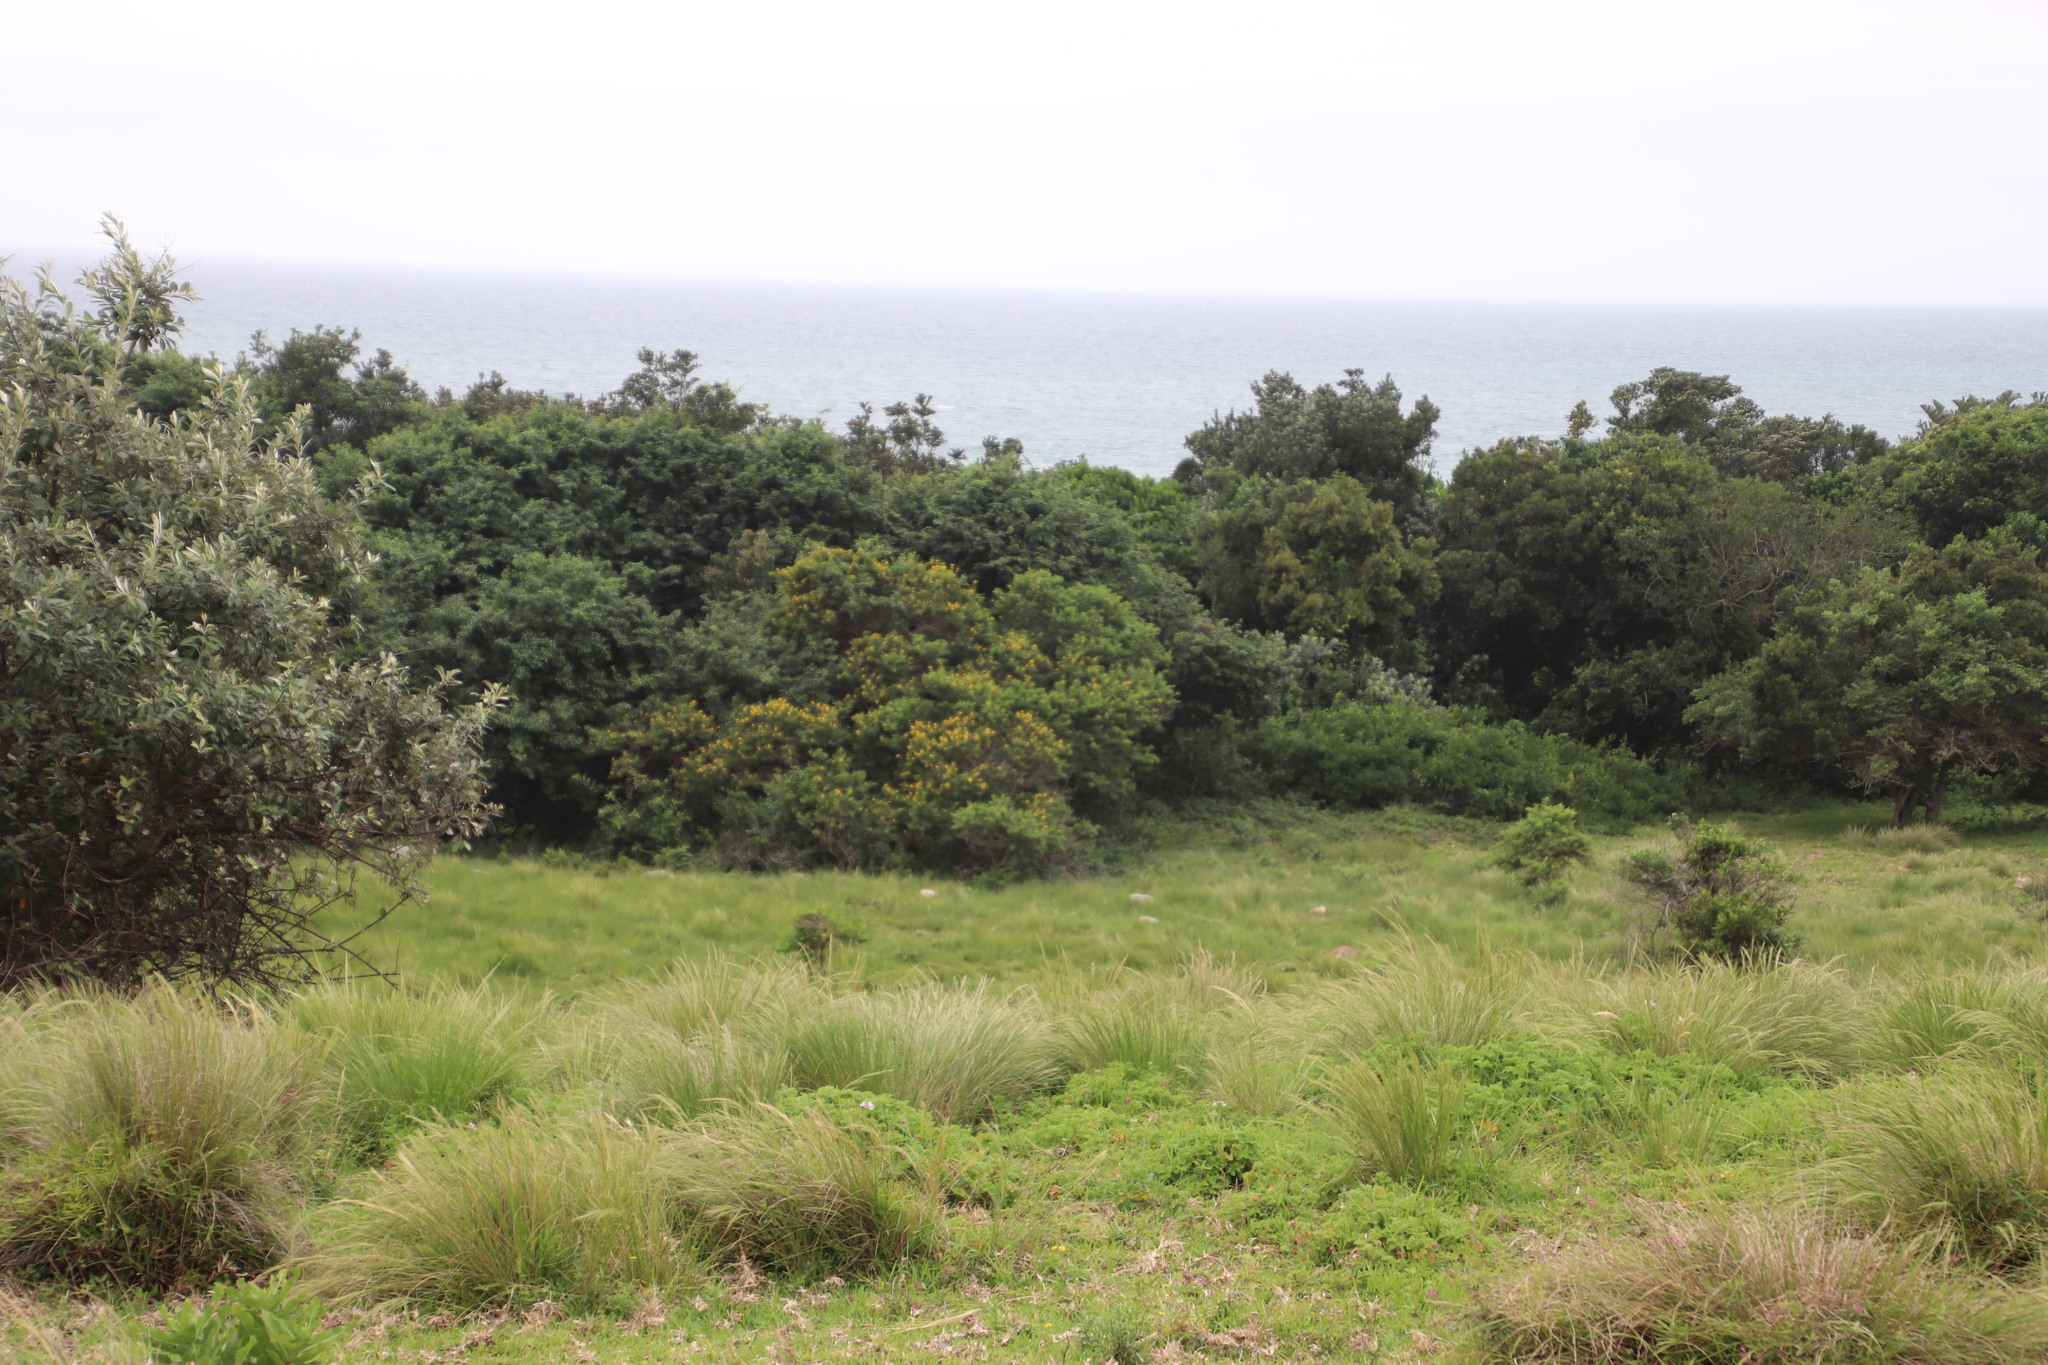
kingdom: Plantae
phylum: Tracheophyta
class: Magnoliopsida
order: Fabales
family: Fabaceae
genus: Vachellia
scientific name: Vachellia karroo
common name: Sweet thorn
